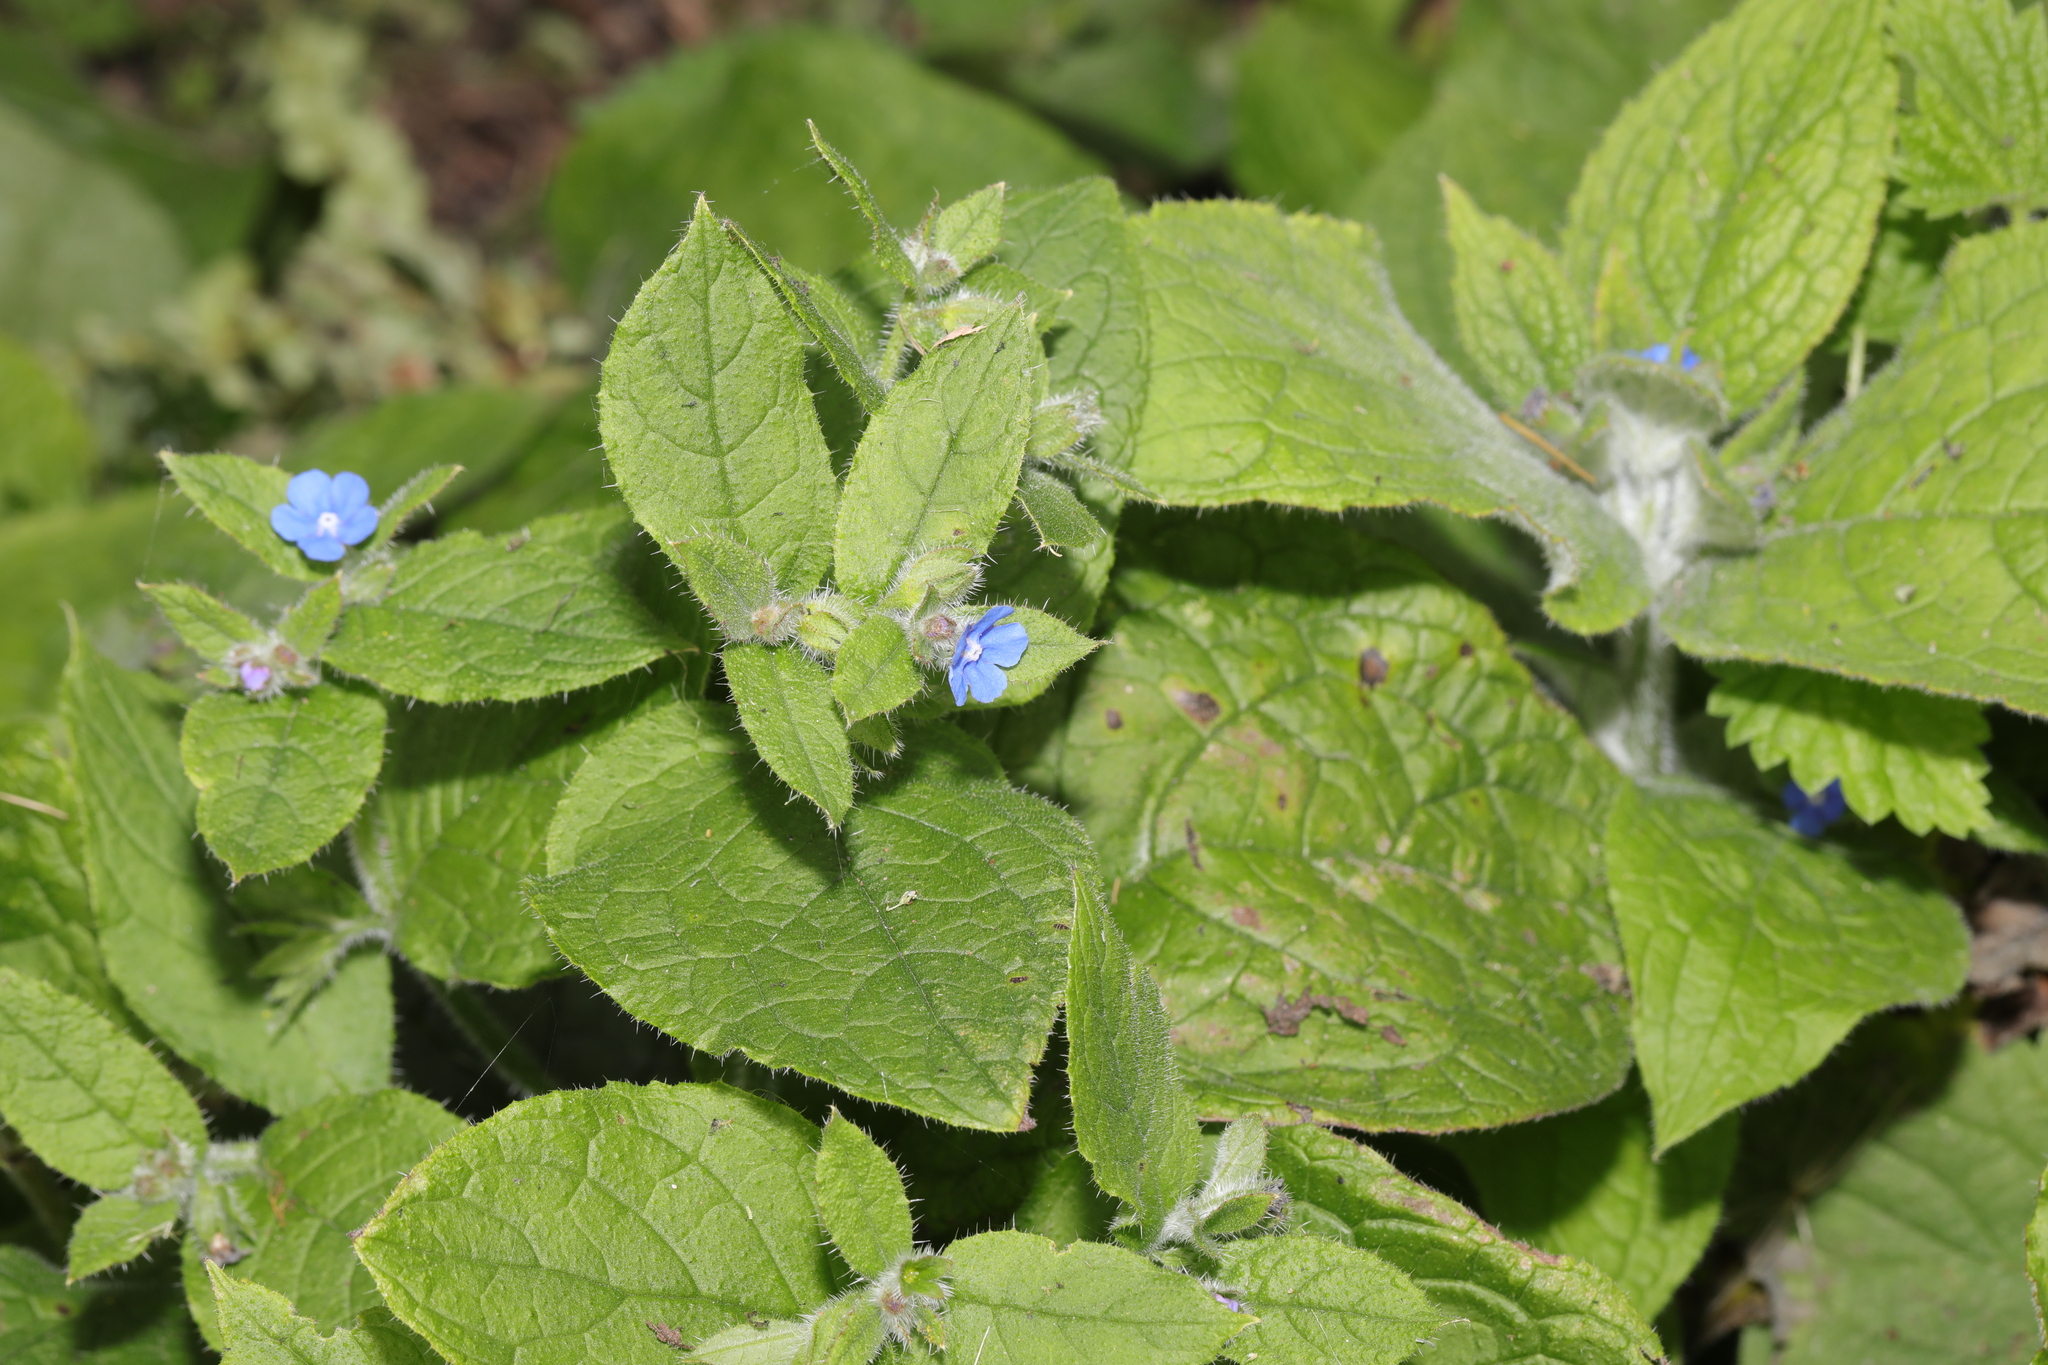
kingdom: Plantae
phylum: Tracheophyta
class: Magnoliopsida
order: Boraginales
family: Boraginaceae
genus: Pentaglottis
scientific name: Pentaglottis sempervirens
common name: Green alkanet
